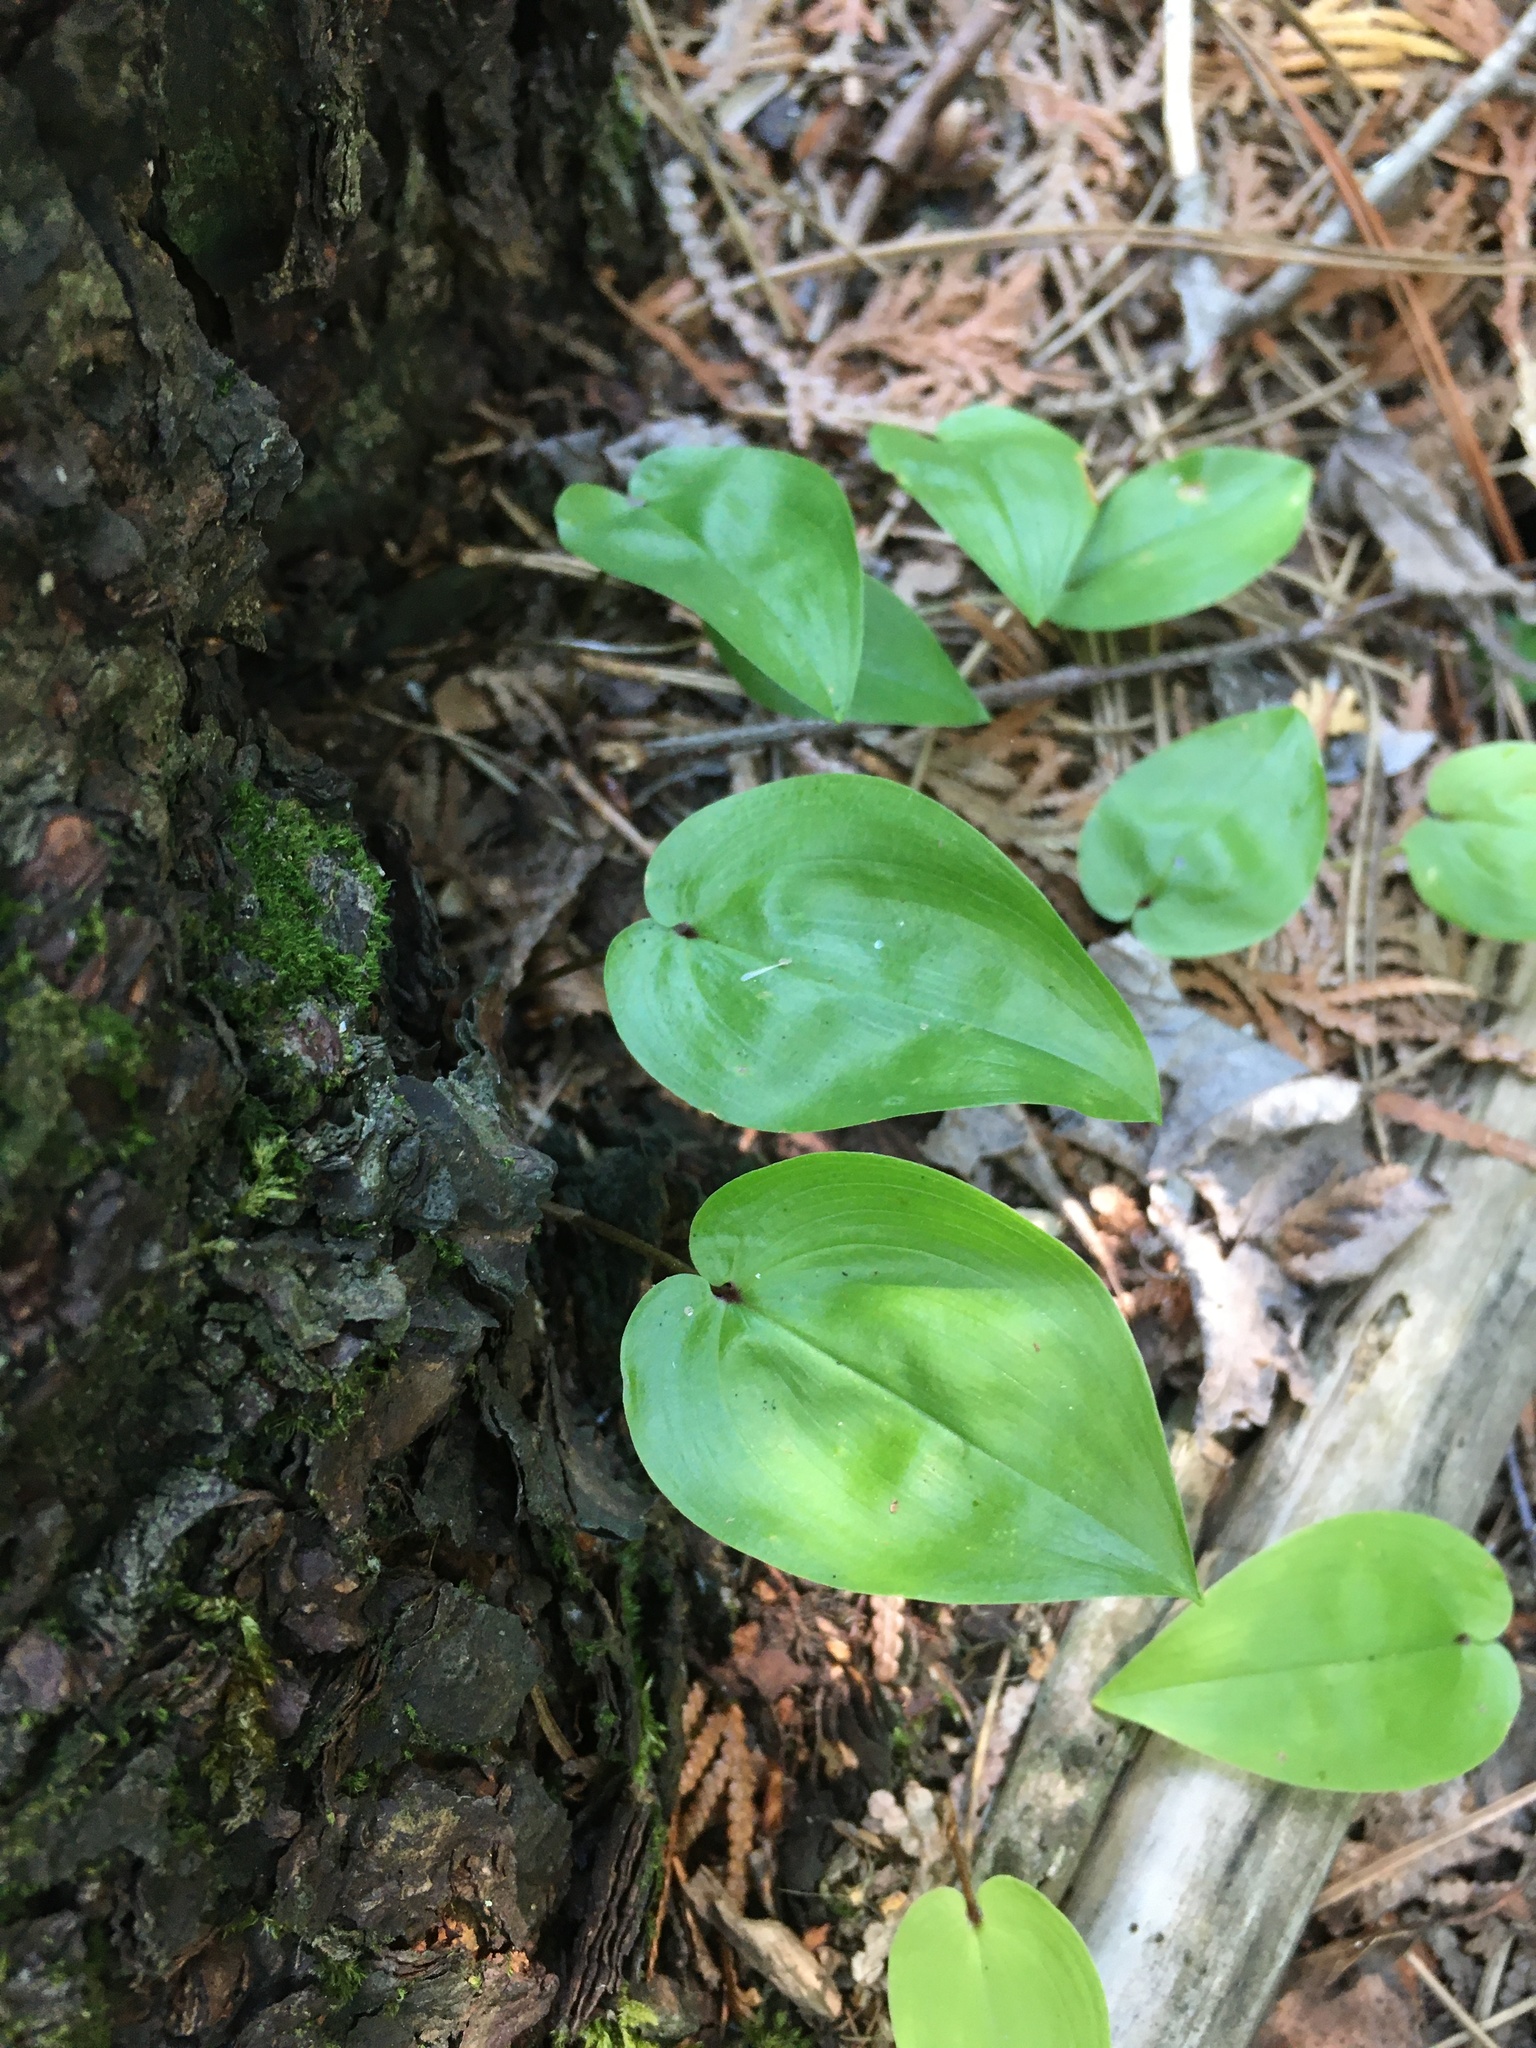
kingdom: Plantae
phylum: Tracheophyta
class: Liliopsida
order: Asparagales
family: Asparagaceae
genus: Maianthemum
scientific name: Maianthemum canadense
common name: False lily-of-the-valley
